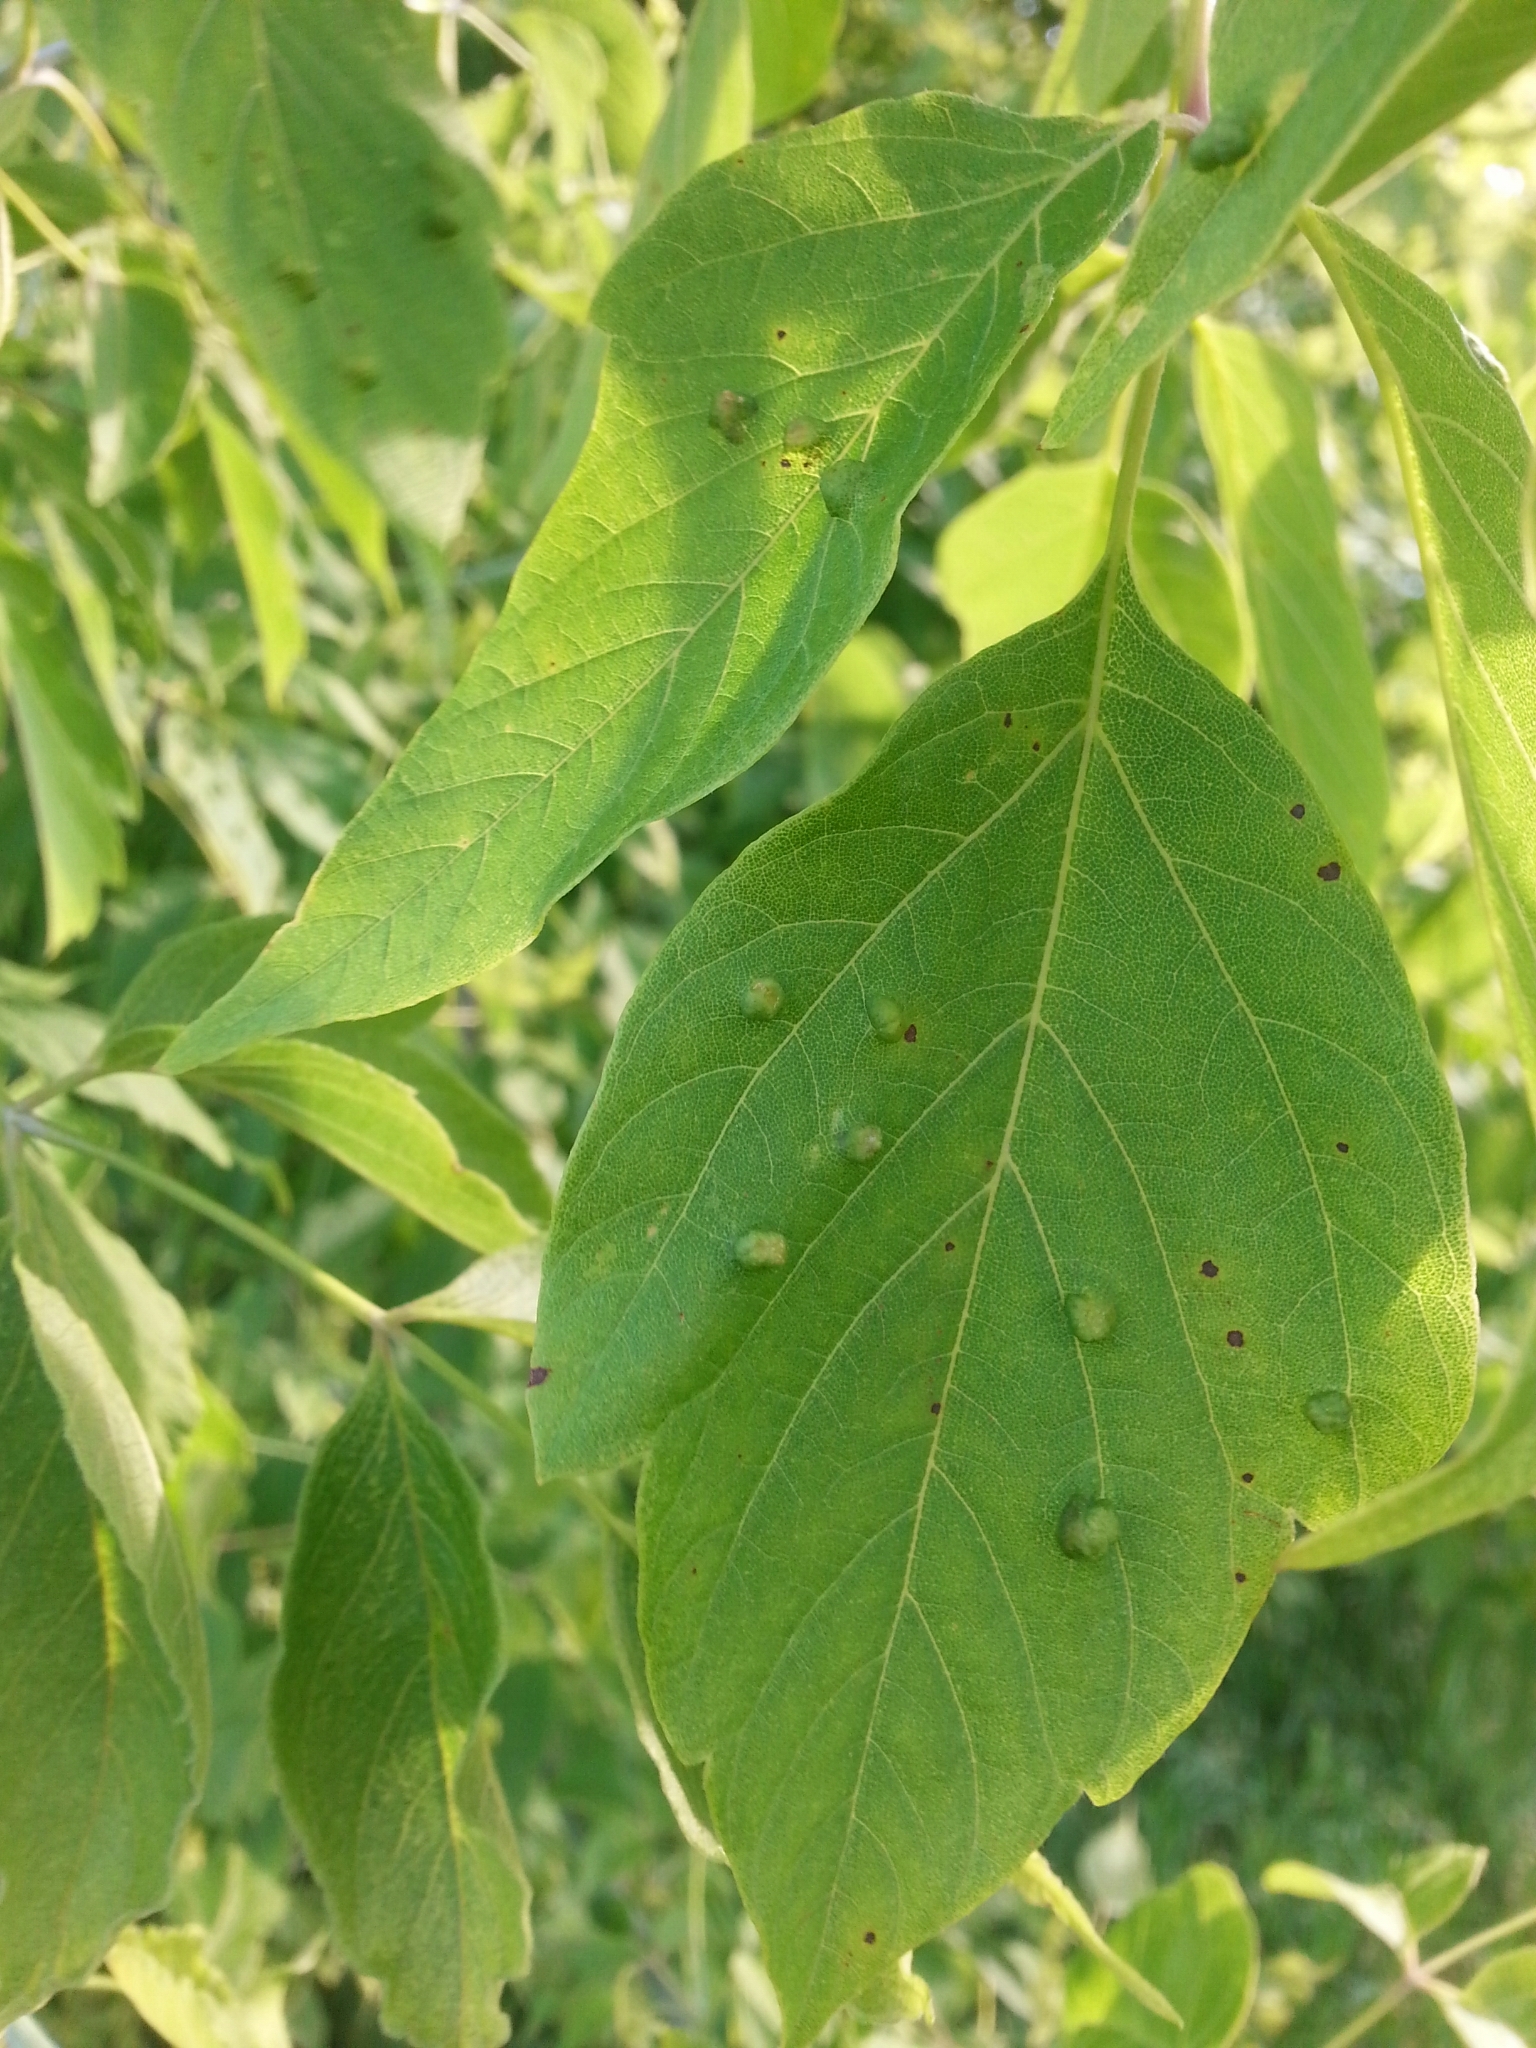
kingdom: Animalia
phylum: Arthropoda
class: Arachnida
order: Trombidiformes
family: Eriophyidae
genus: Aceria
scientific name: Aceria
